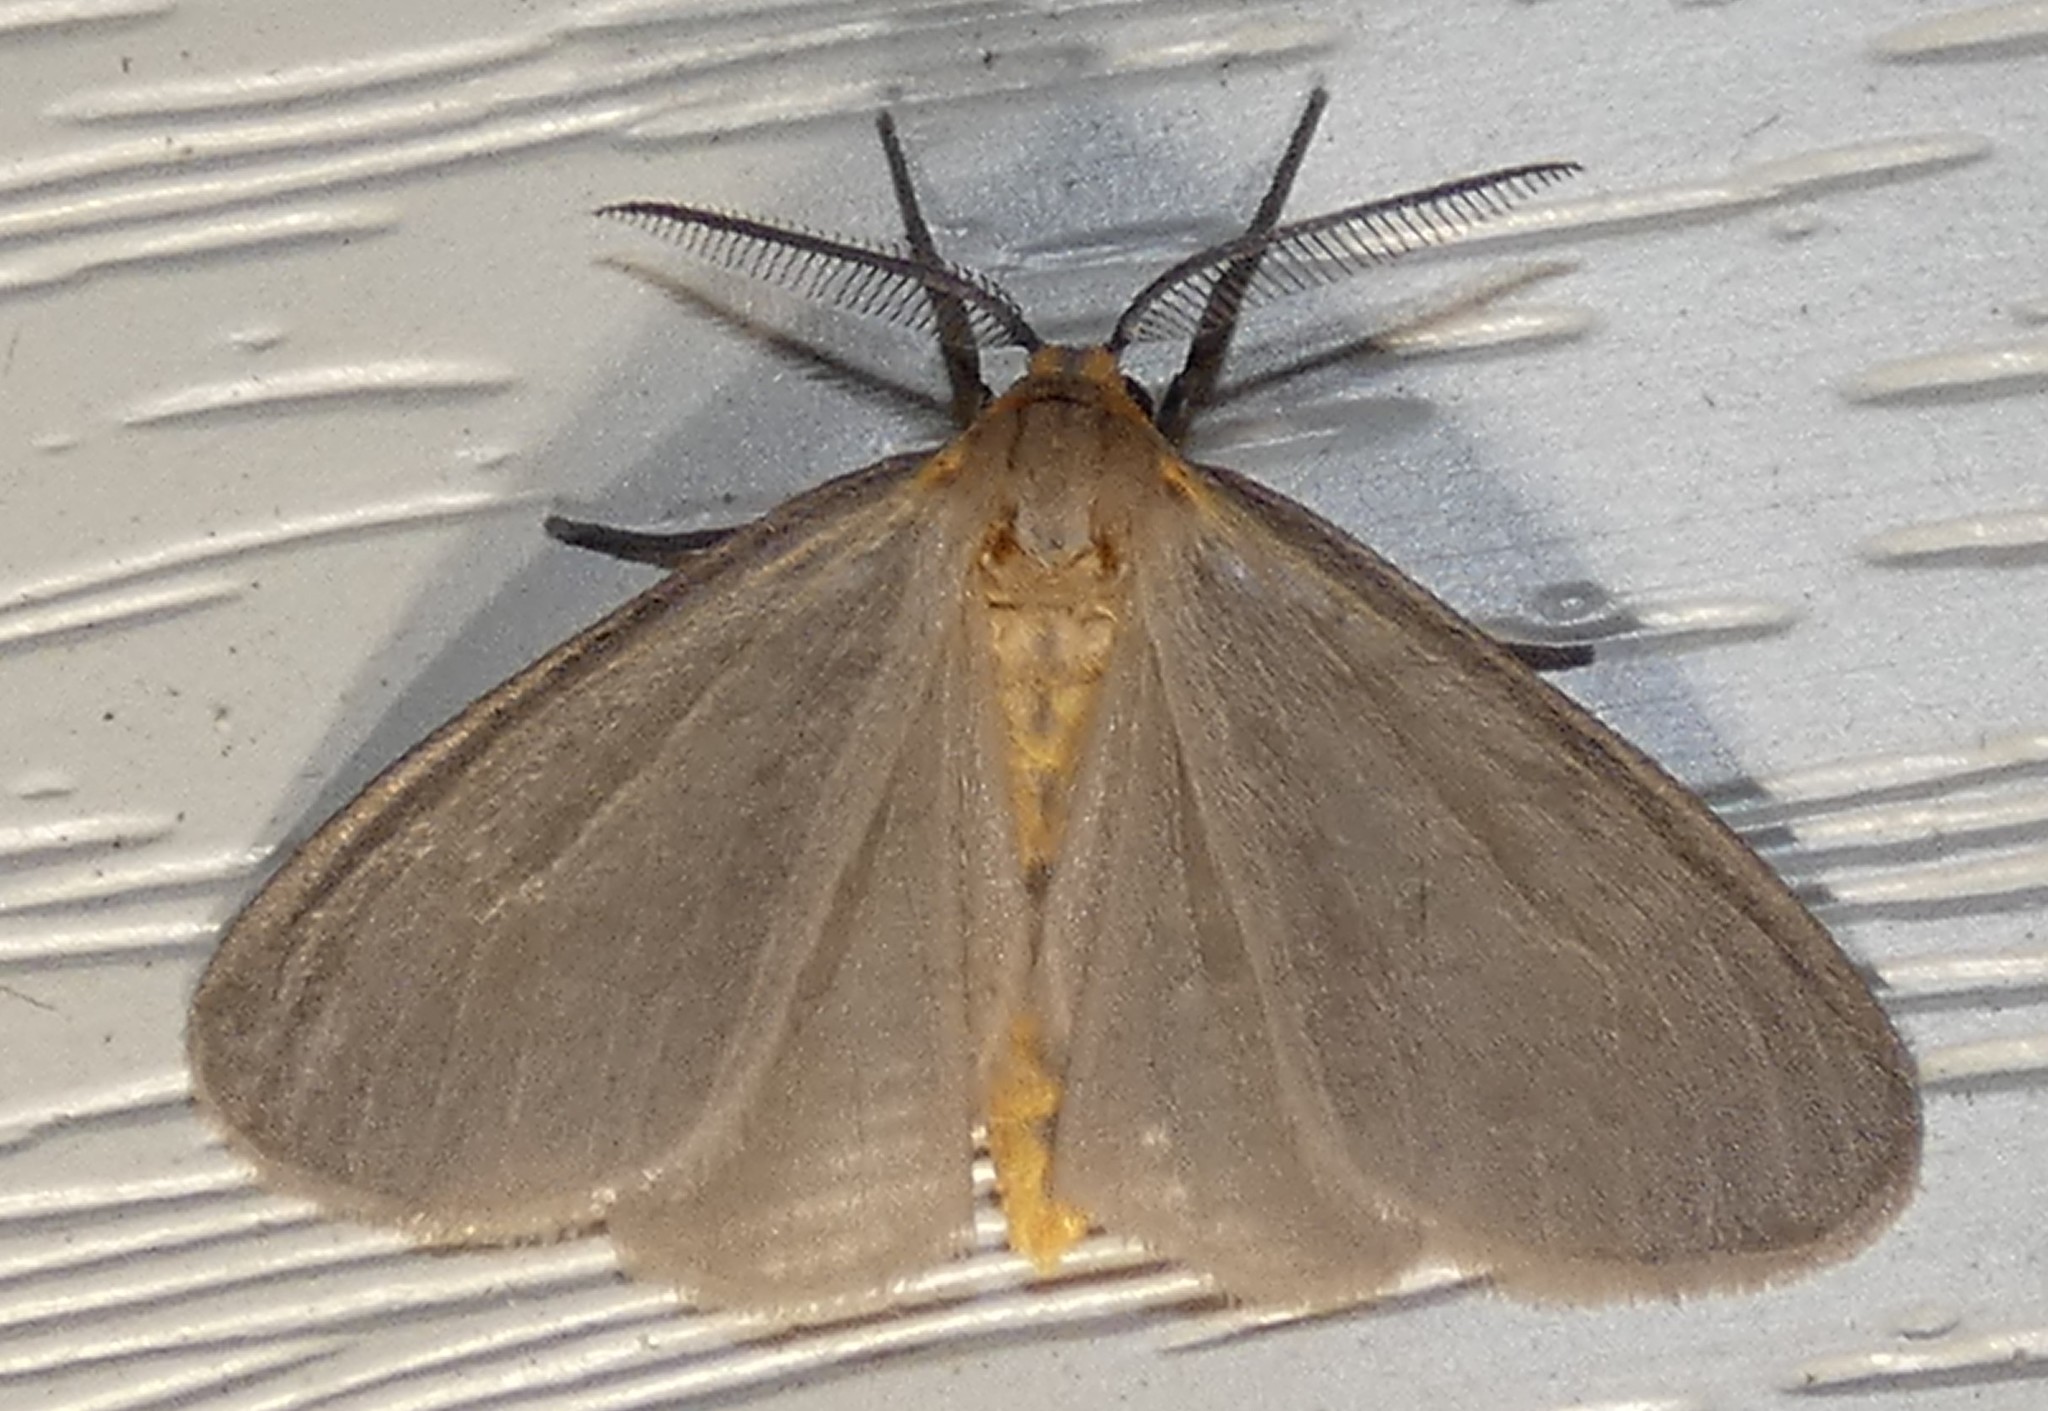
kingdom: Animalia
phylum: Arthropoda
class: Insecta
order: Lepidoptera
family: Erebidae
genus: Pagara
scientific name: Pagara simplex
